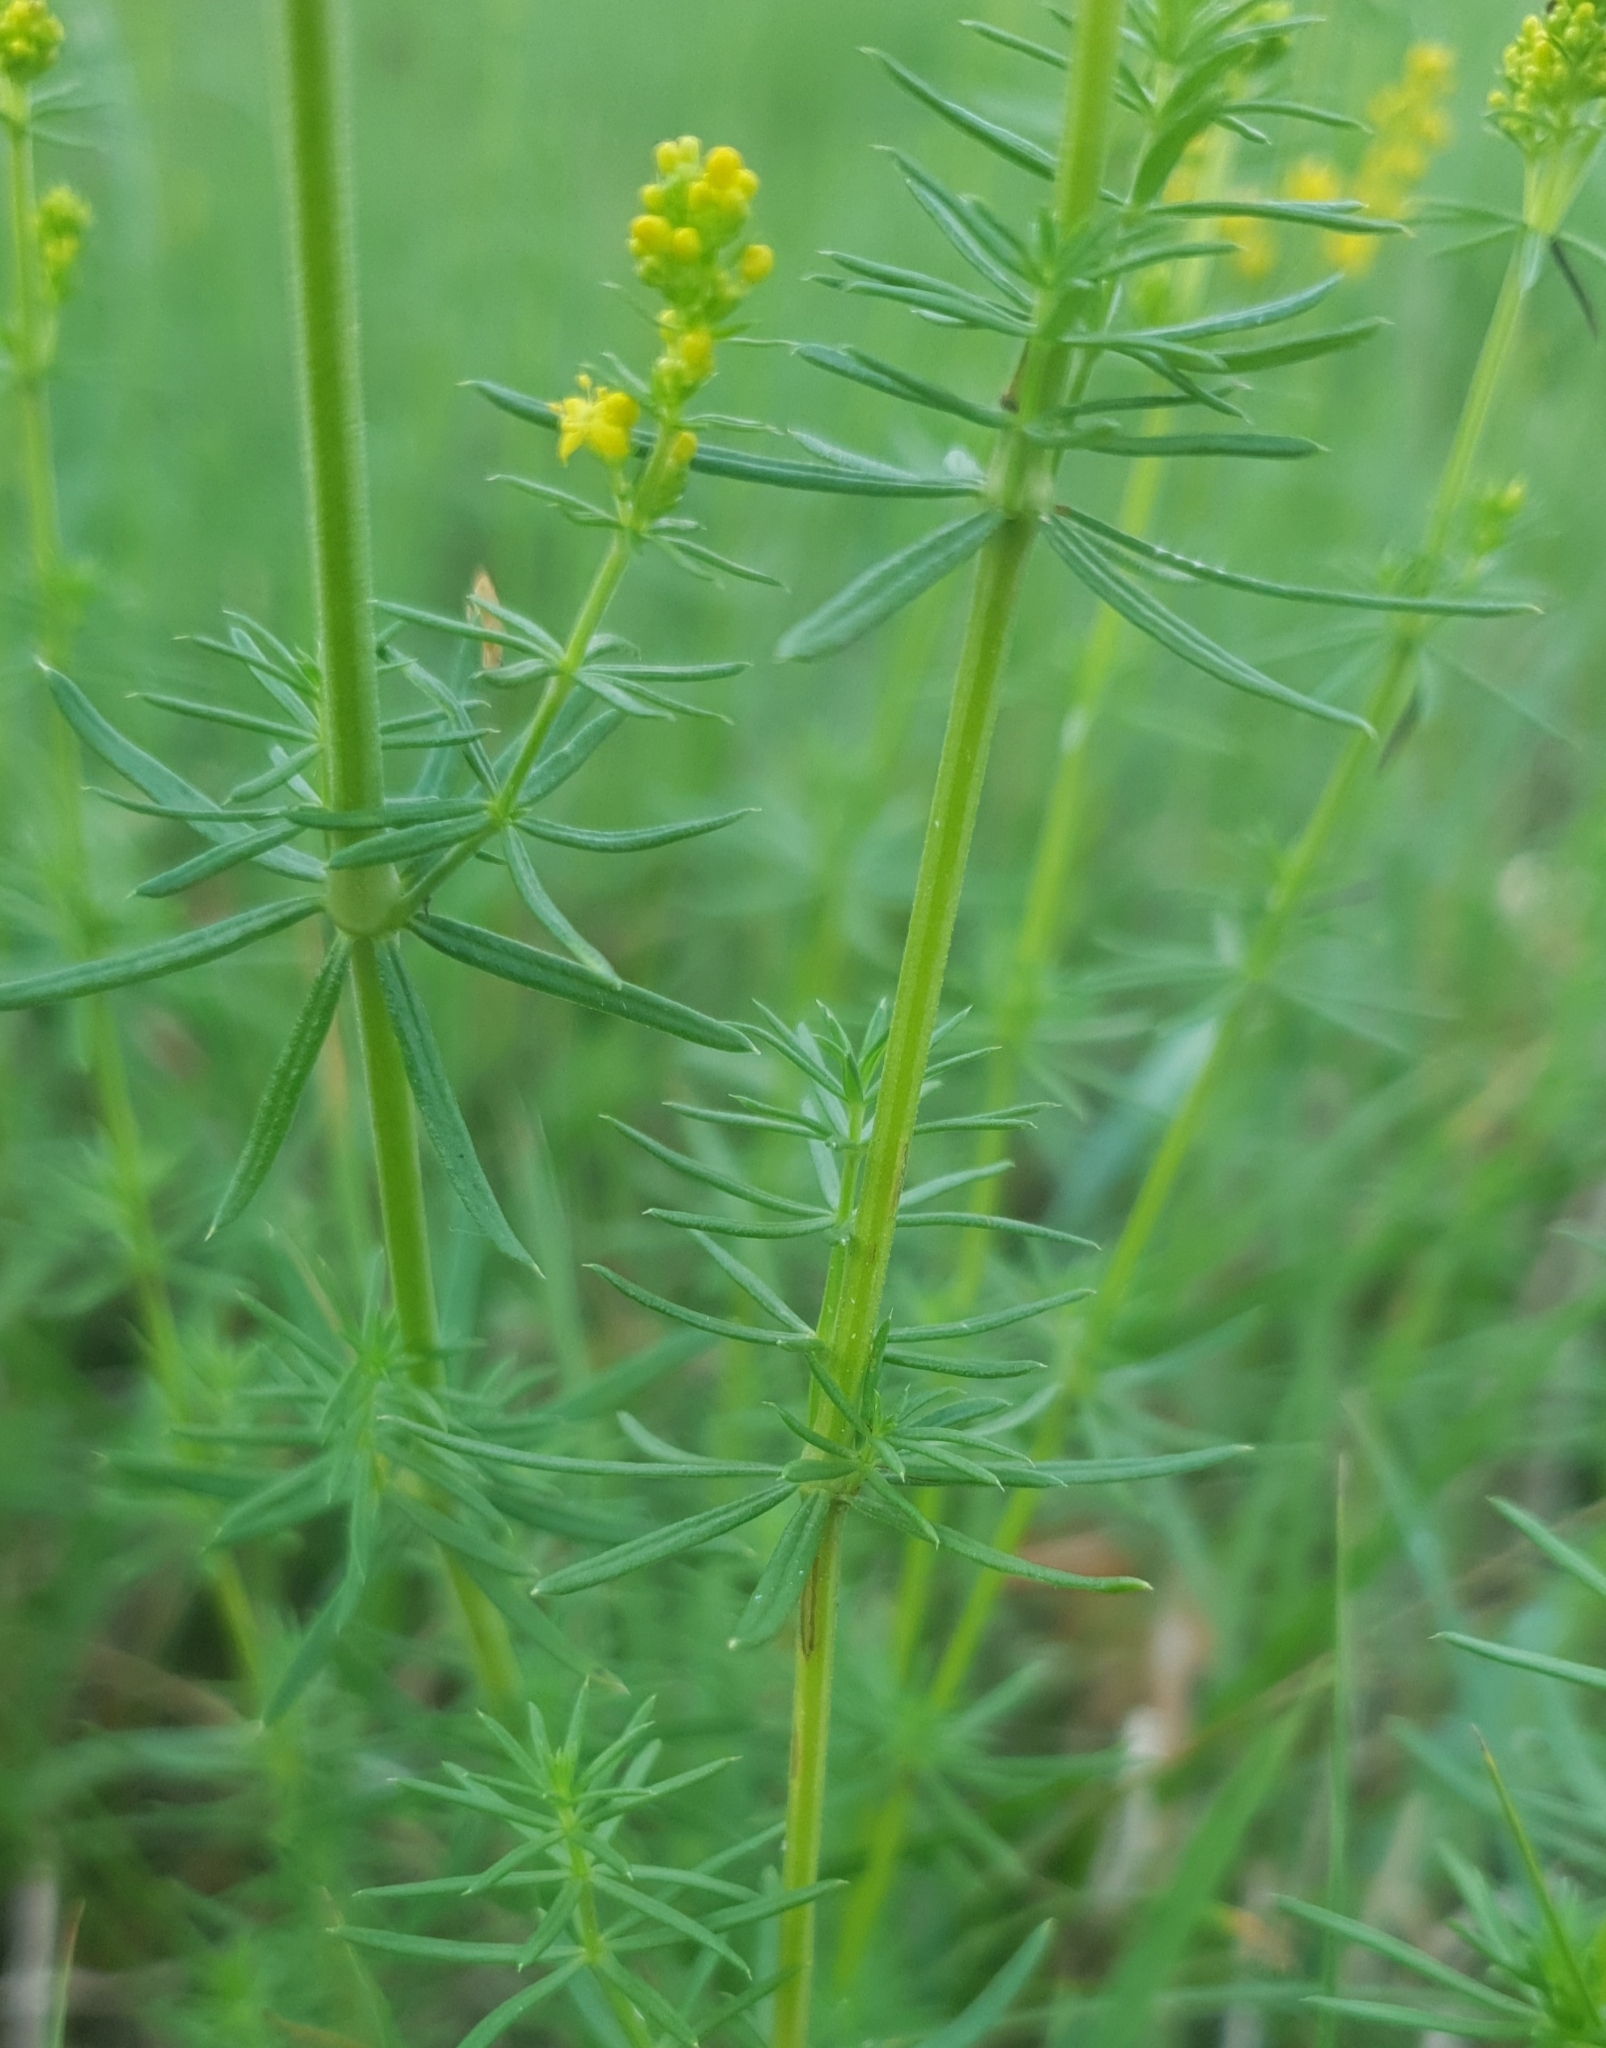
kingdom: Plantae
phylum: Tracheophyta
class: Magnoliopsida
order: Gentianales
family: Rubiaceae
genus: Galium
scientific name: Galium verum
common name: Lady's bedstraw
